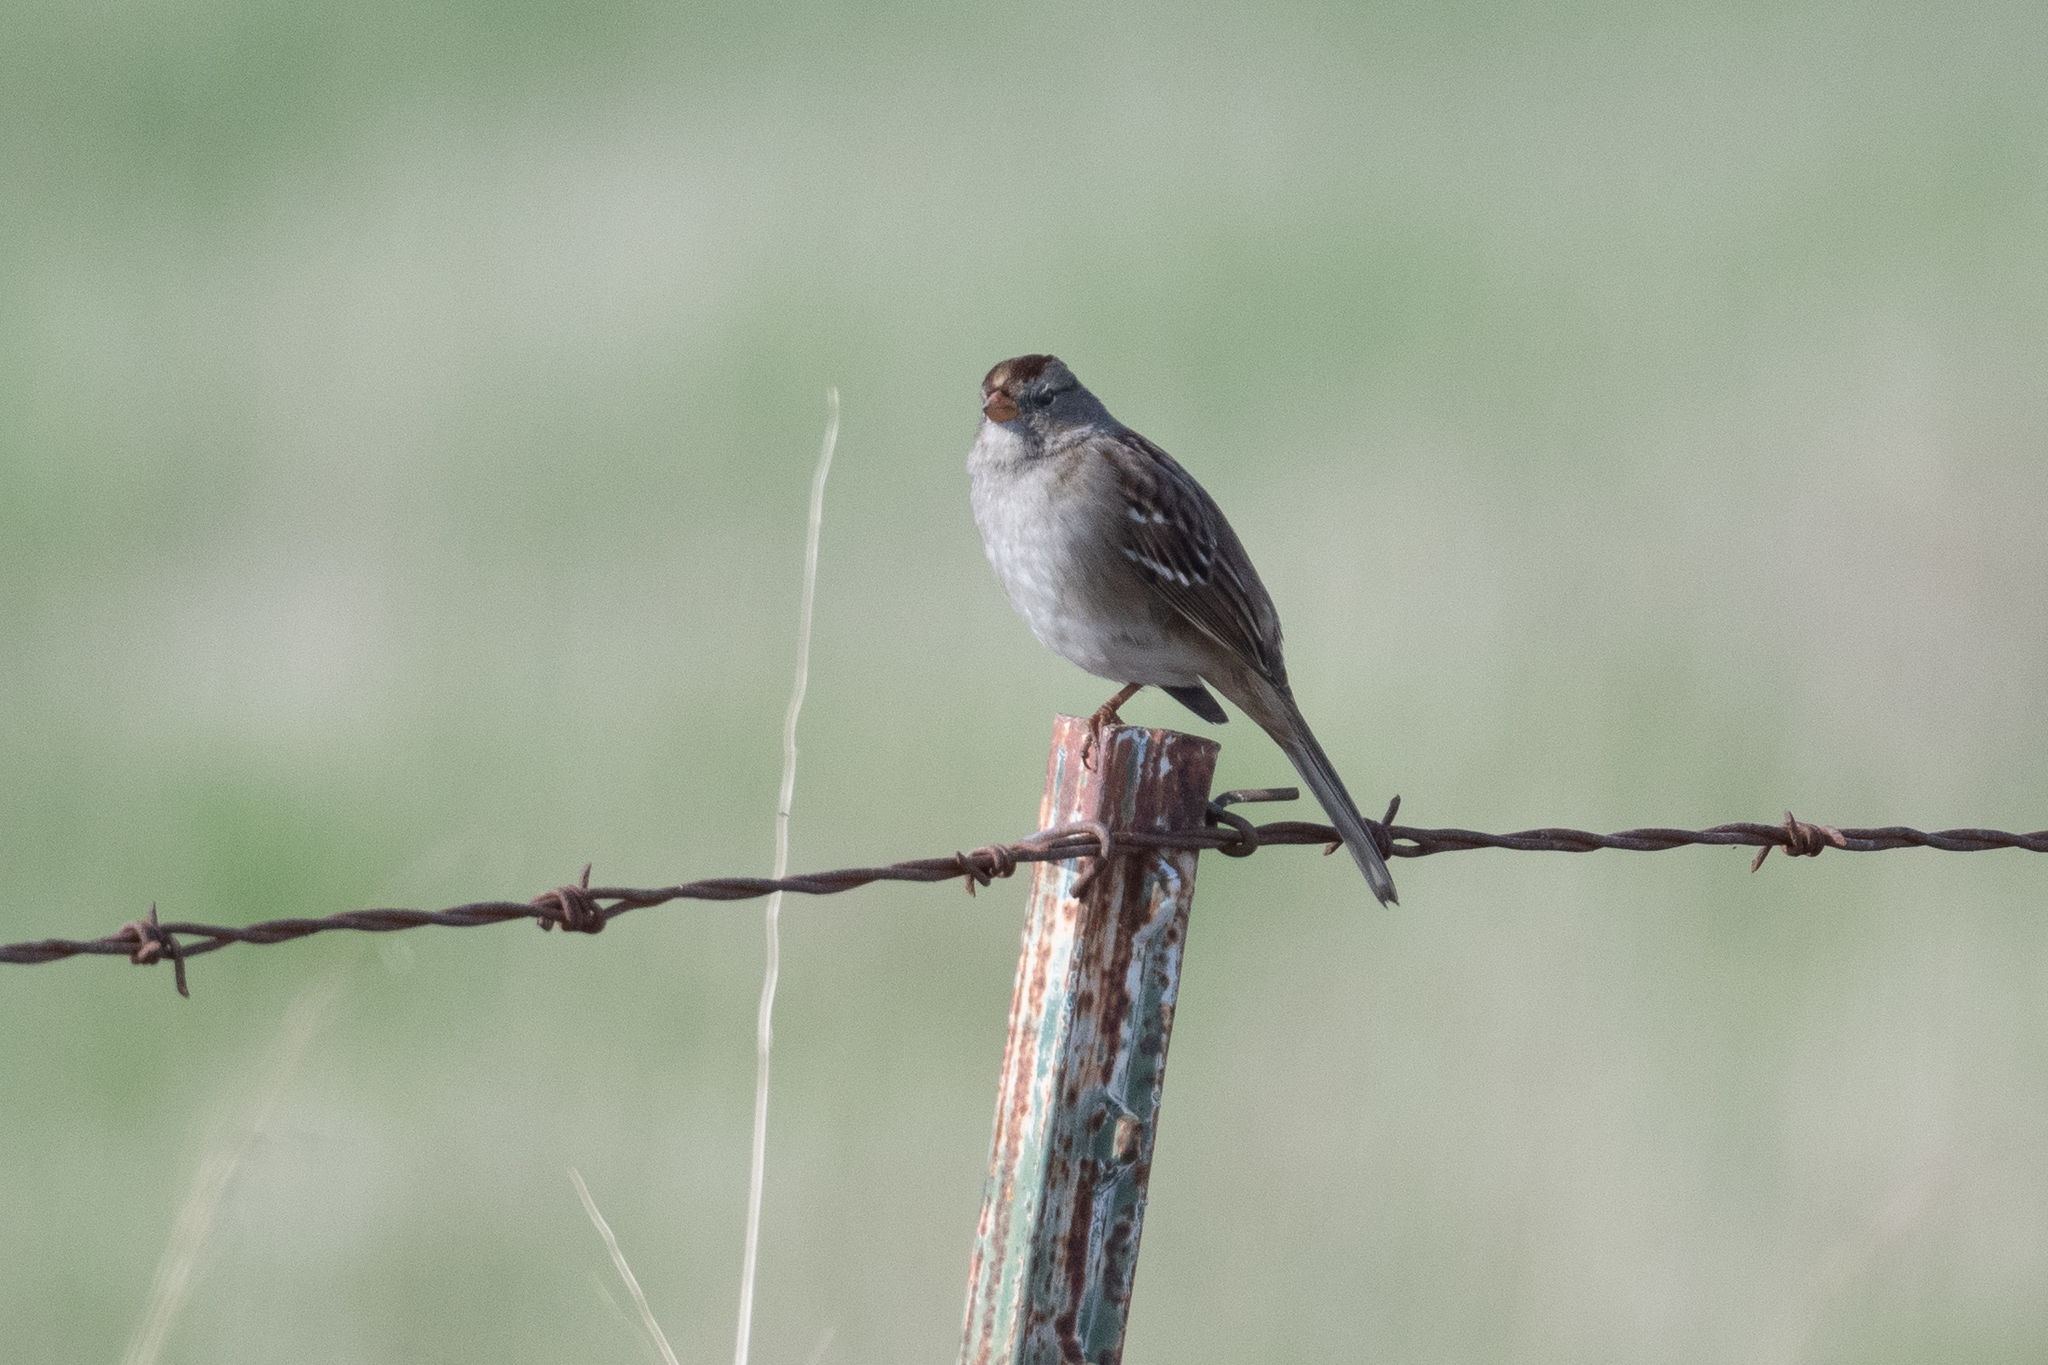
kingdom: Animalia
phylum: Chordata
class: Aves
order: Passeriformes
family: Passerellidae
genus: Zonotrichia
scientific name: Zonotrichia leucophrys
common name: White-crowned sparrow
